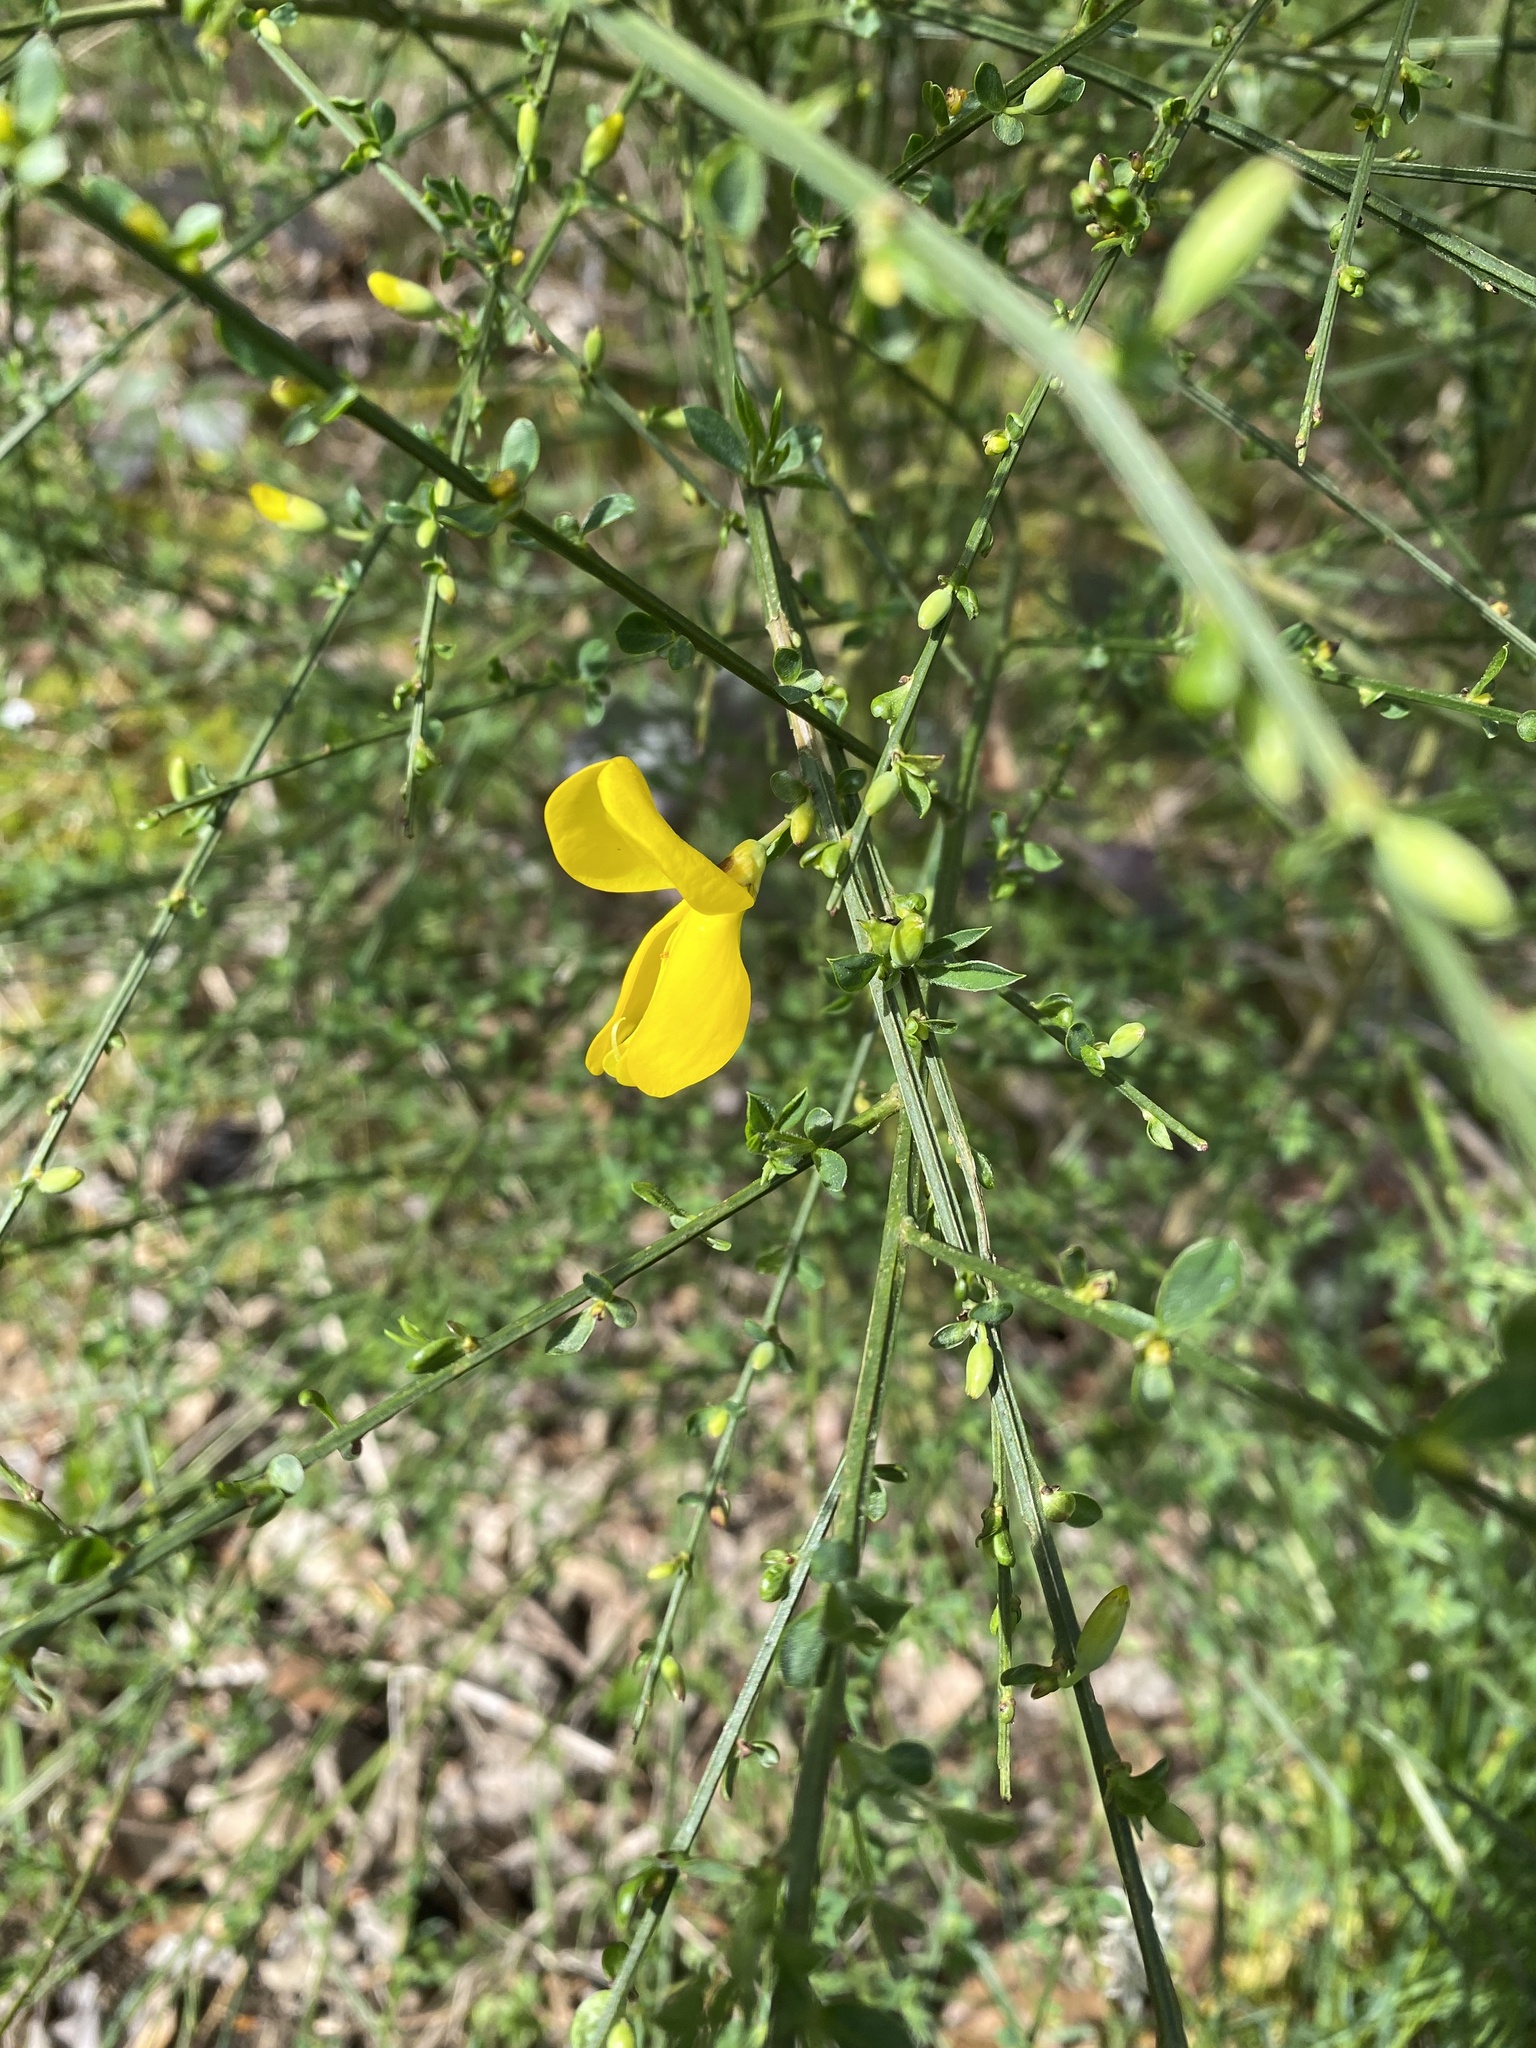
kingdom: Plantae
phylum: Tracheophyta
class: Magnoliopsida
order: Fabales
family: Fabaceae
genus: Cytisus
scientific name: Cytisus scoparius
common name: Scotch broom
